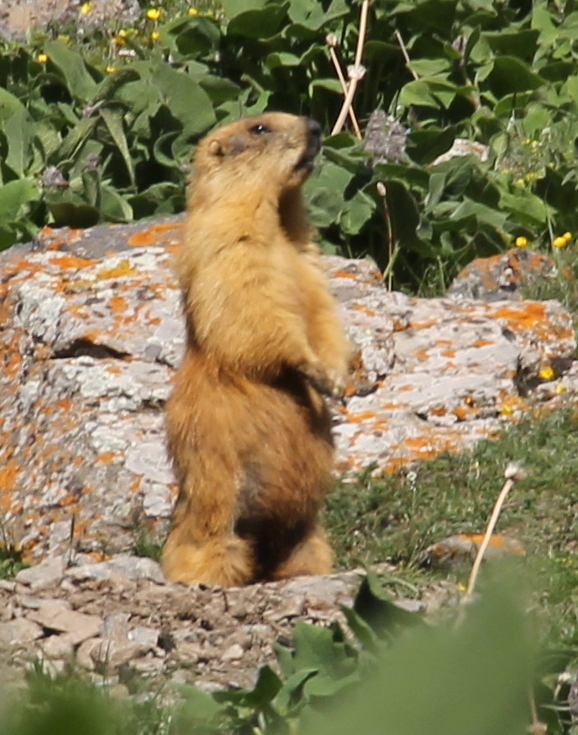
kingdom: Animalia
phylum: Chordata
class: Mammalia
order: Rodentia
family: Sciuridae
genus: Marmota
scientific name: Marmota caudata
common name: Long-tailed marmot
